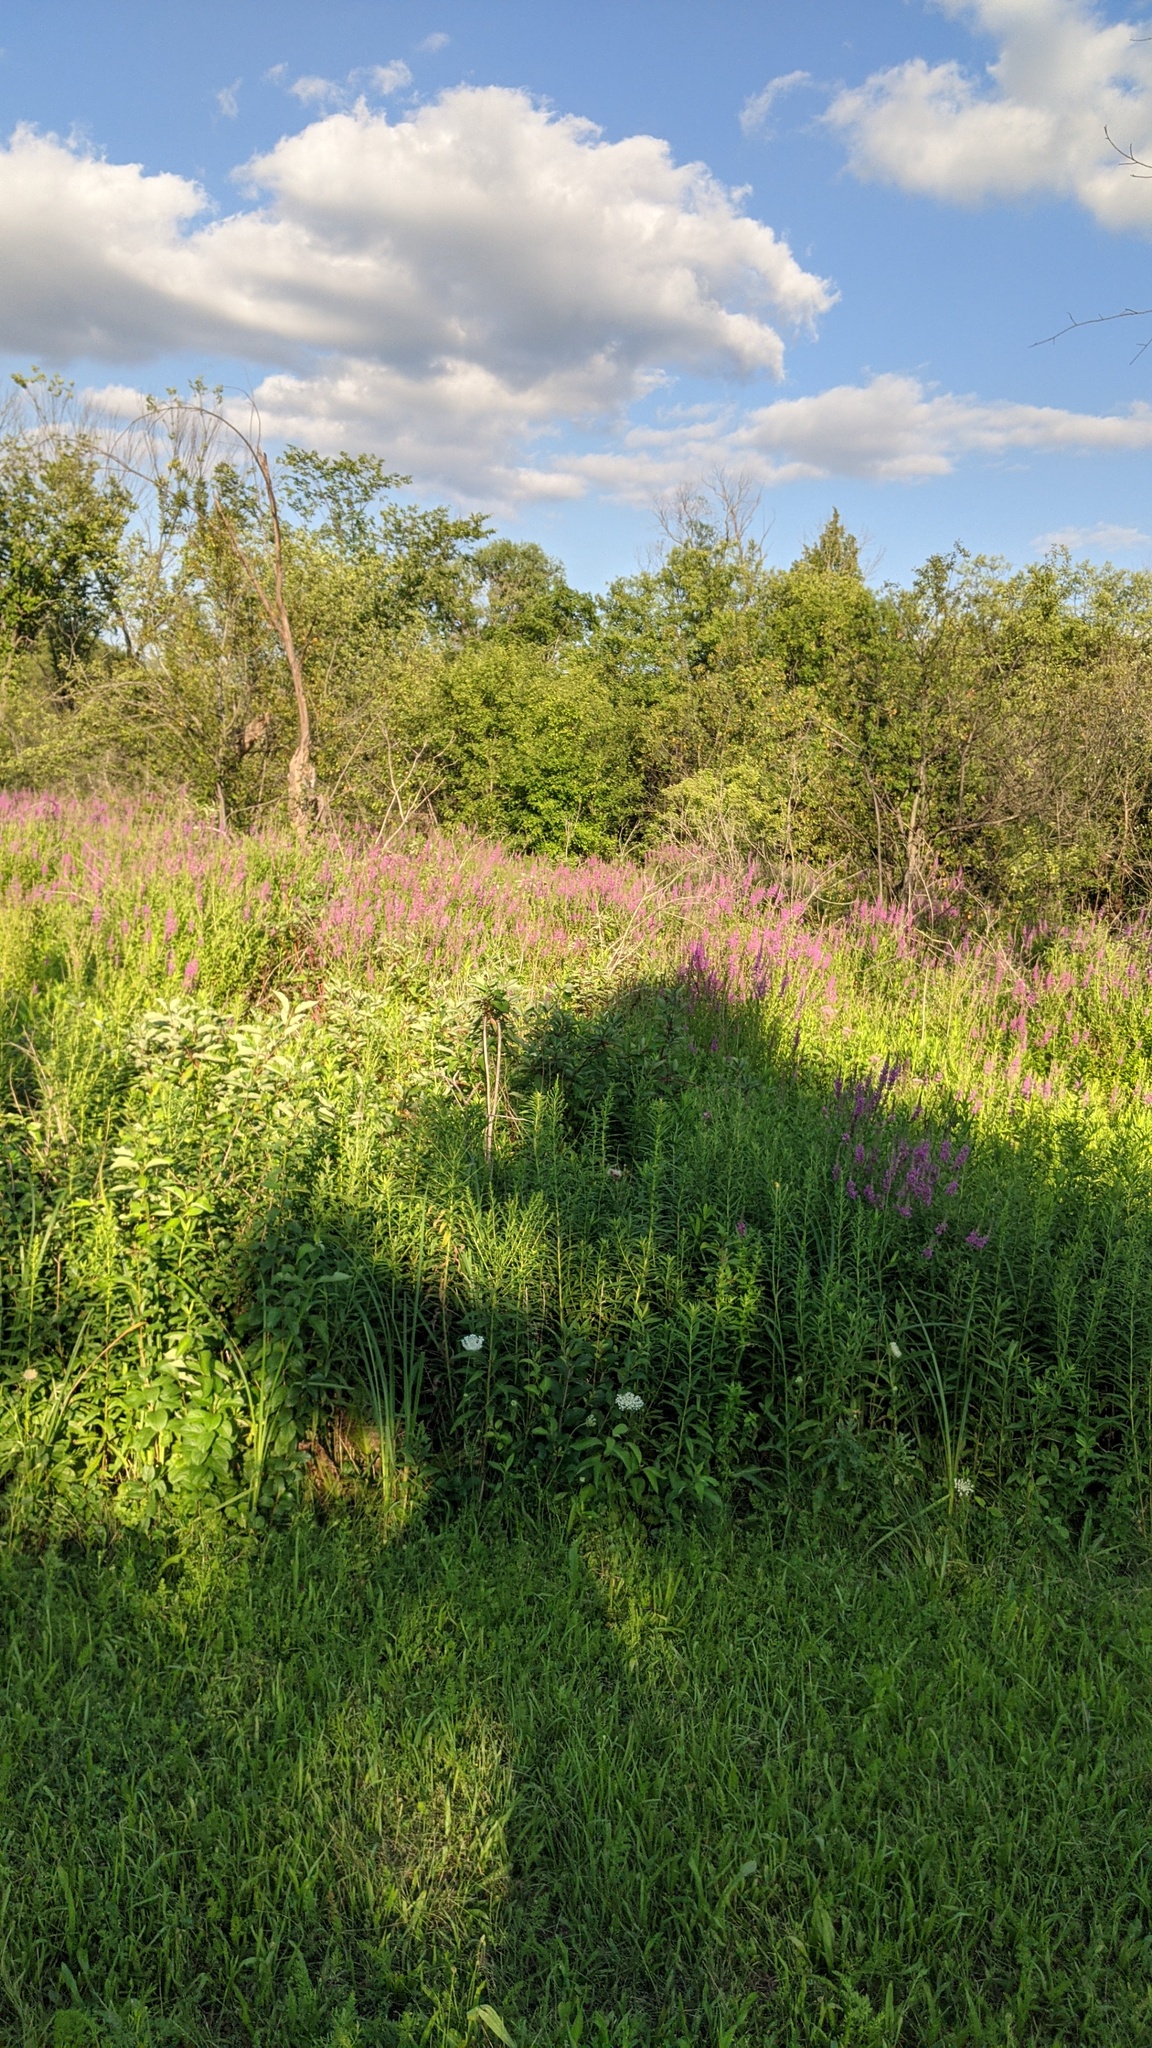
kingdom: Plantae
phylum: Tracheophyta
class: Magnoliopsida
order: Myrtales
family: Lythraceae
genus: Lythrum
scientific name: Lythrum salicaria
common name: Purple loosestrife
